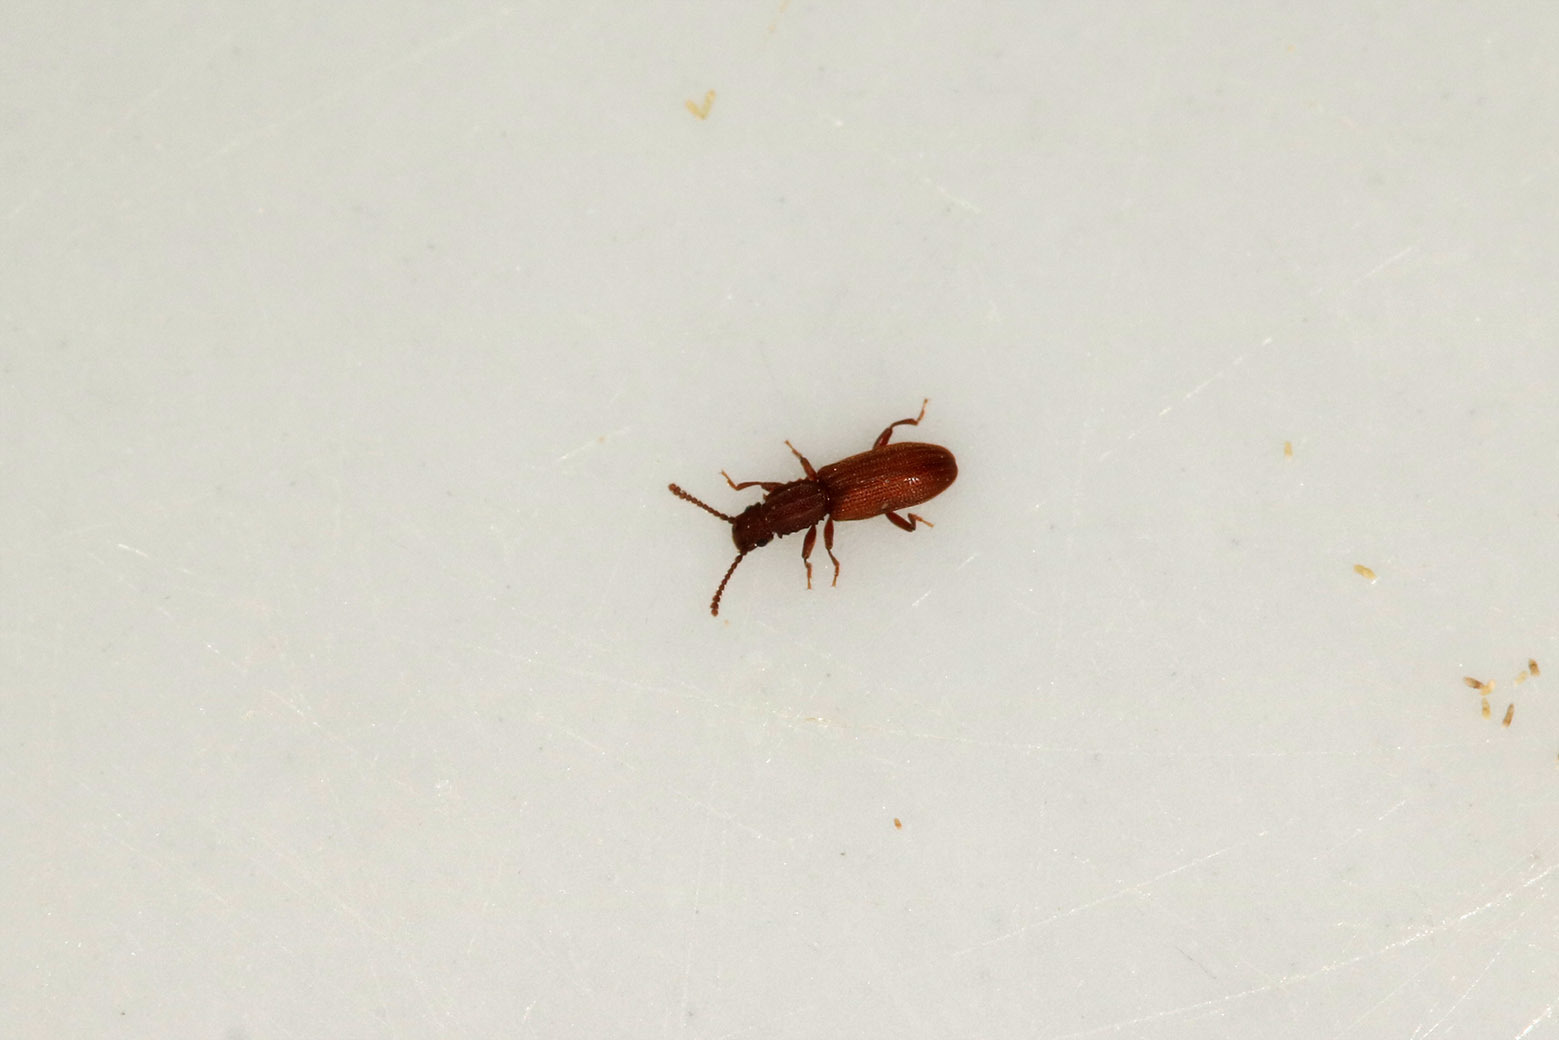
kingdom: Animalia
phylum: Arthropoda
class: Insecta
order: Coleoptera
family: Silvanidae
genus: Oryzaephilus
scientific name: Oryzaephilus surinamensis
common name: Sawtoothed grain beetle
